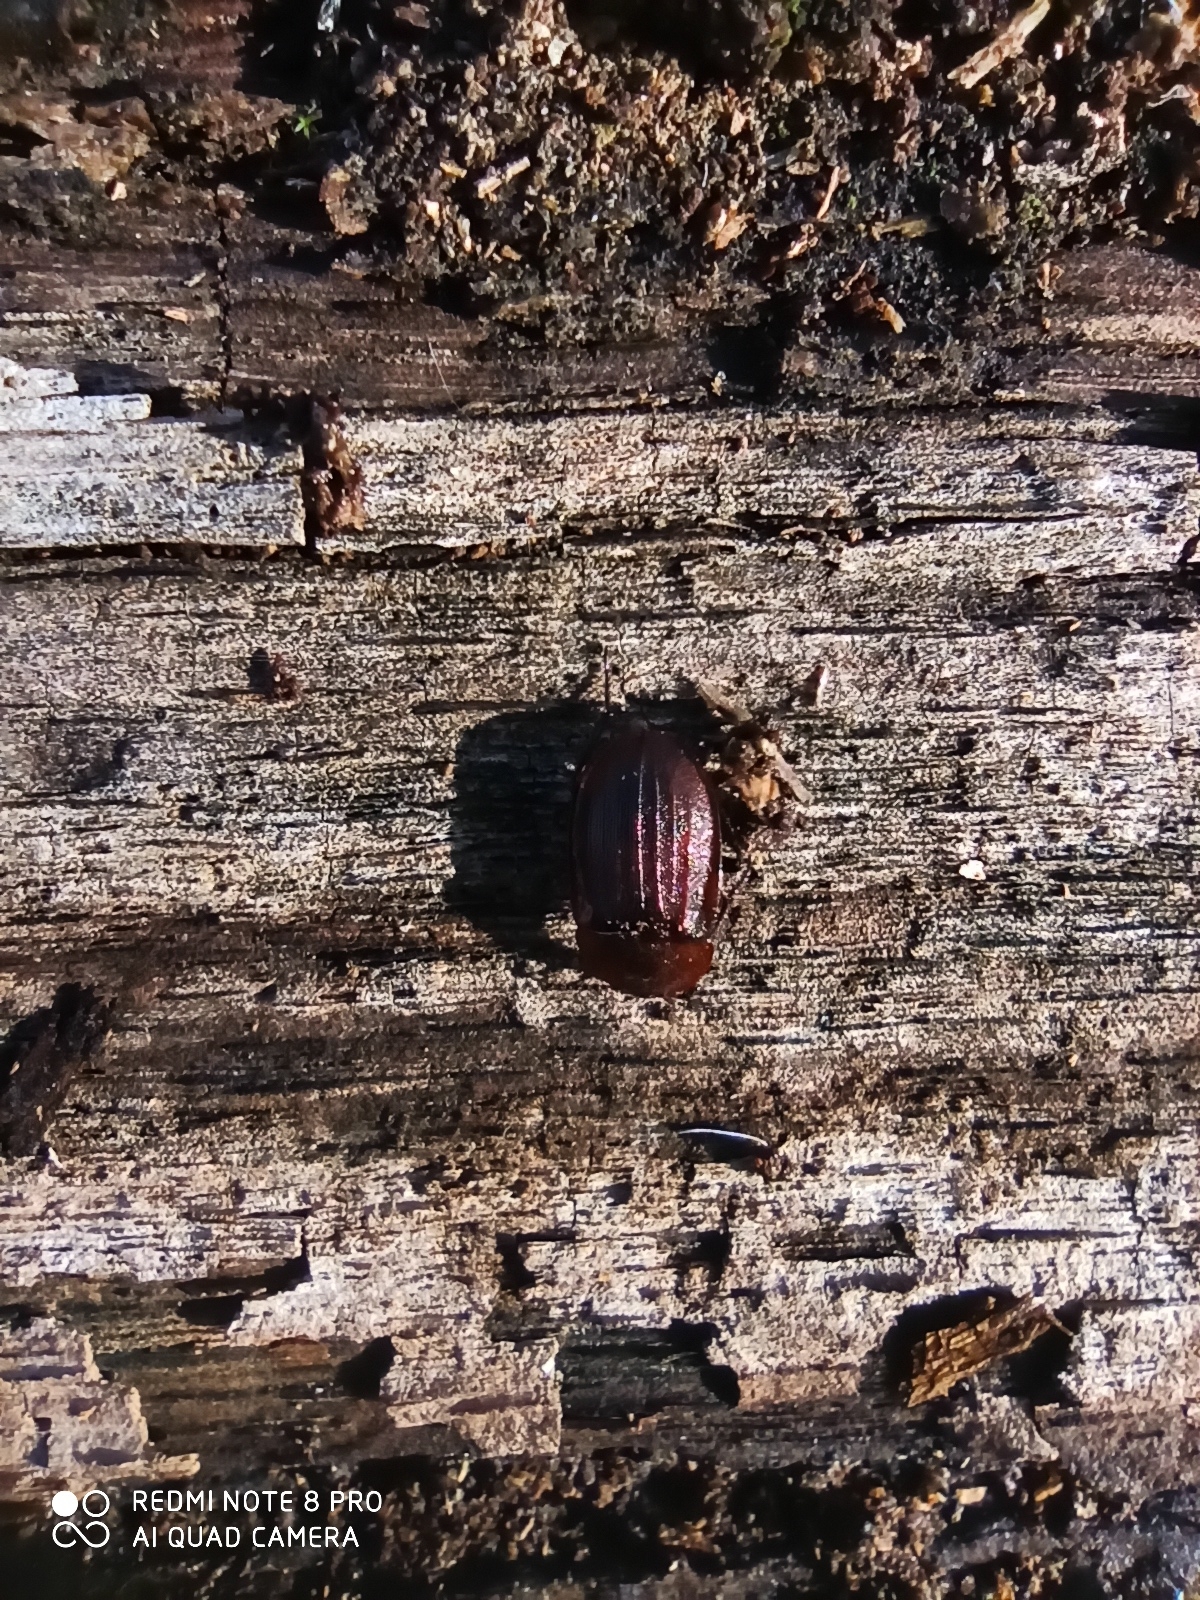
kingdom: Animalia
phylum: Arthropoda
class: Insecta
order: Coleoptera
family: Staphylinidae
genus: Silpha
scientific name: Silpha atrata
